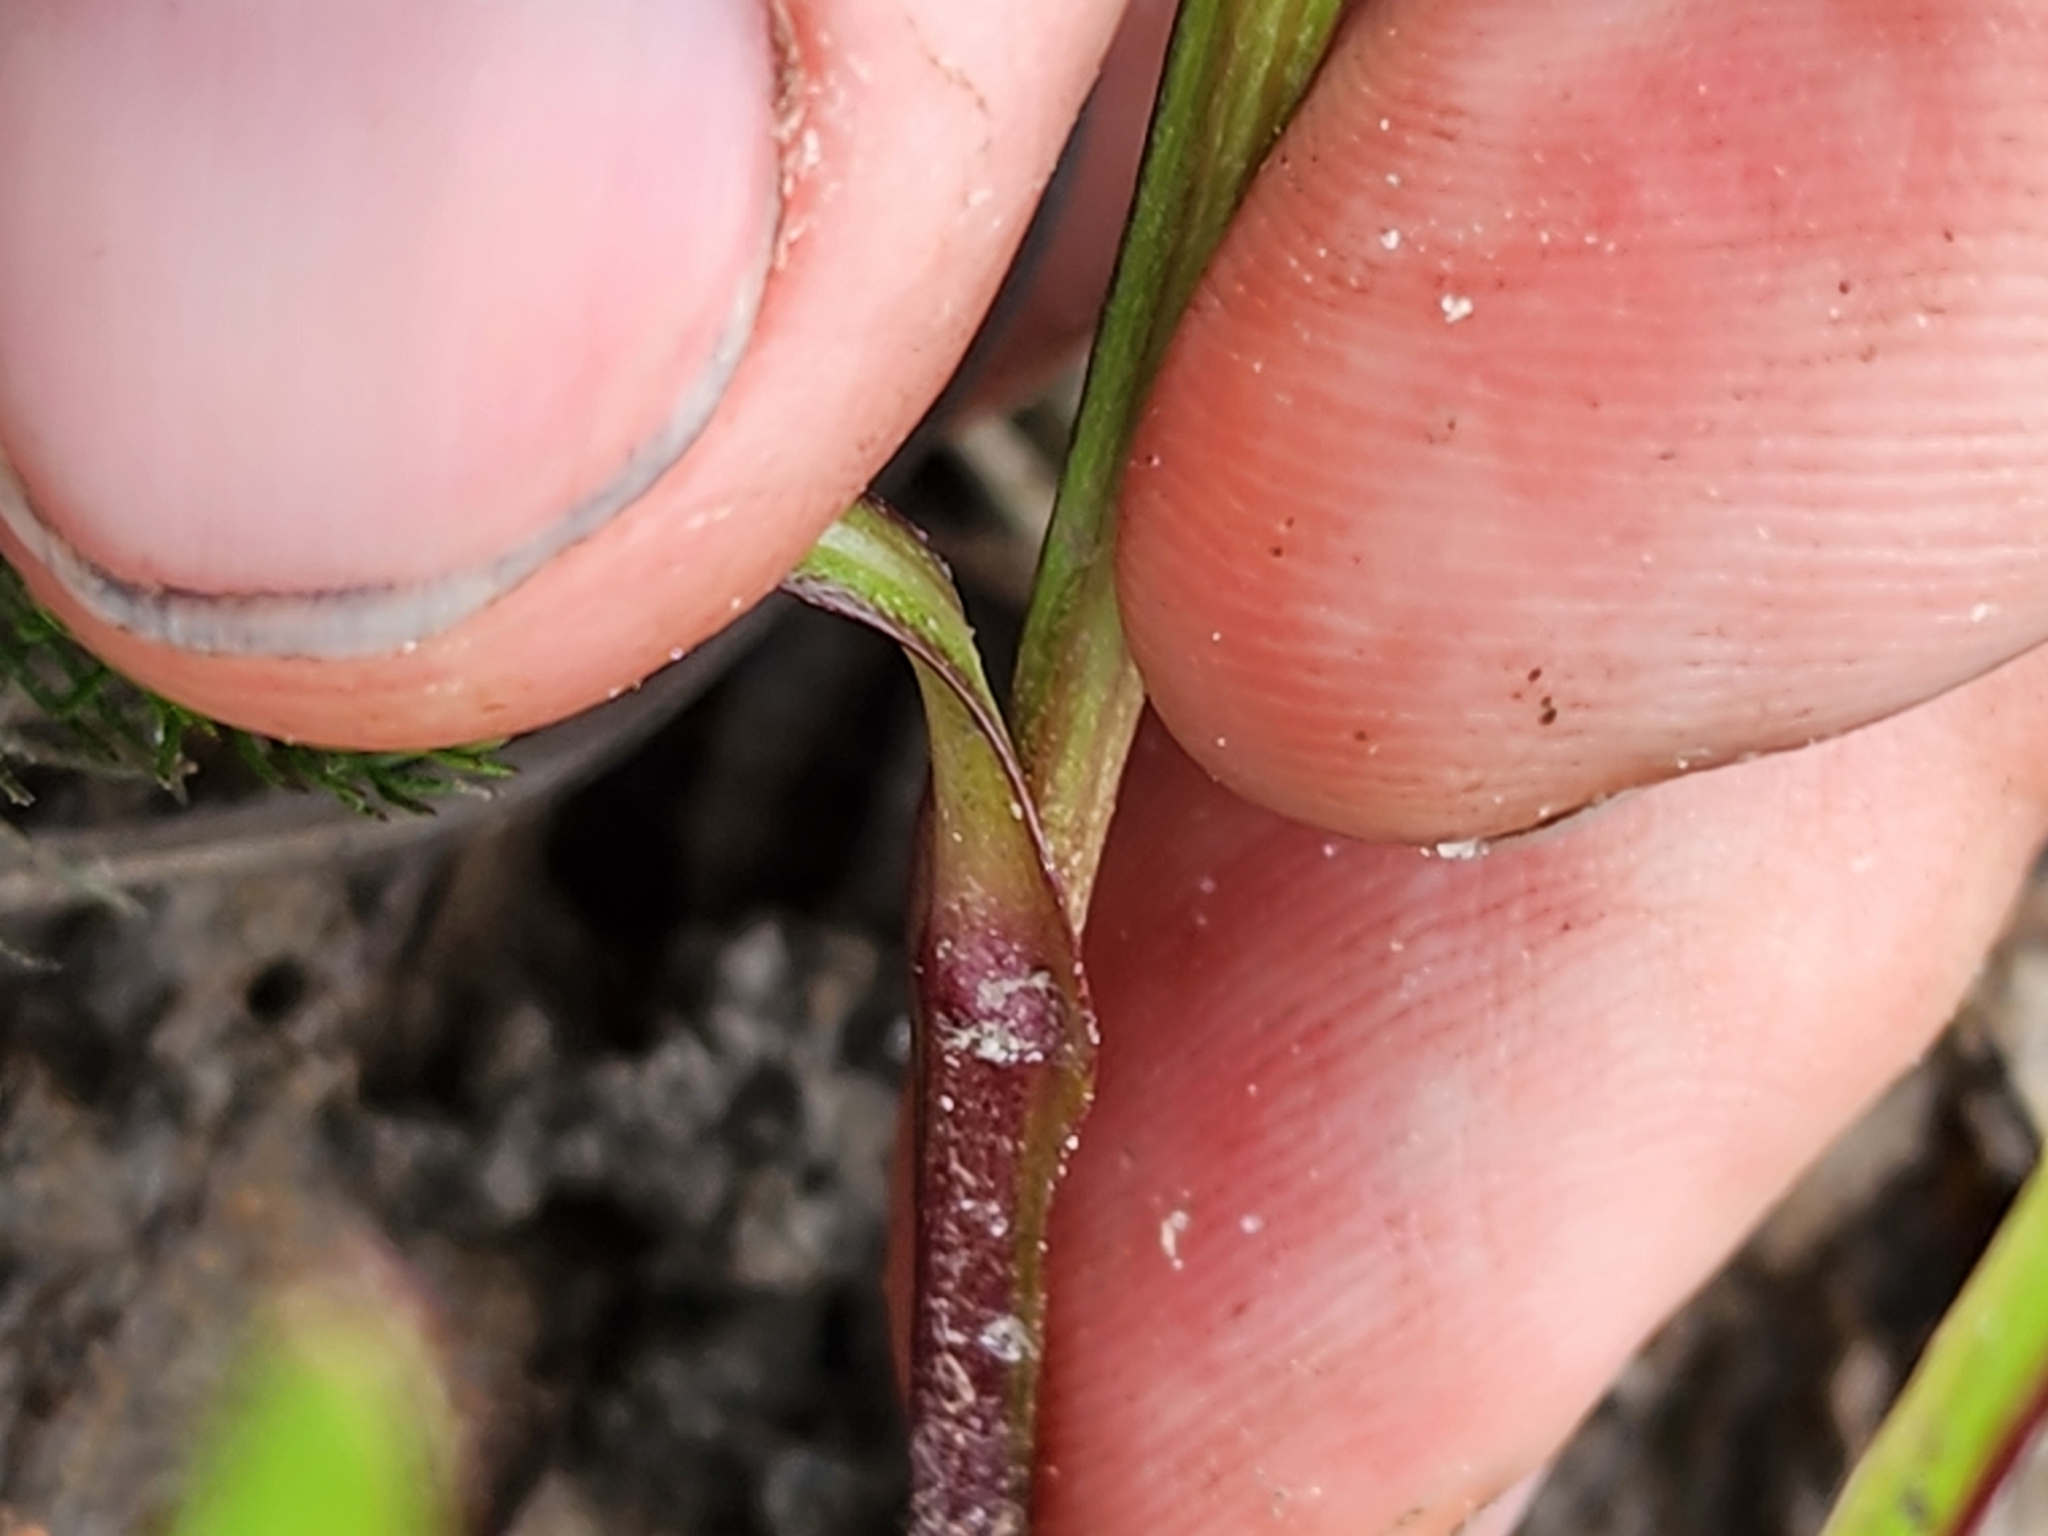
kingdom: Plantae
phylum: Tracheophyta
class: Magnoliopsida
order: Asterales
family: Asteraceae
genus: Helenium
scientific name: Helenium vernale
